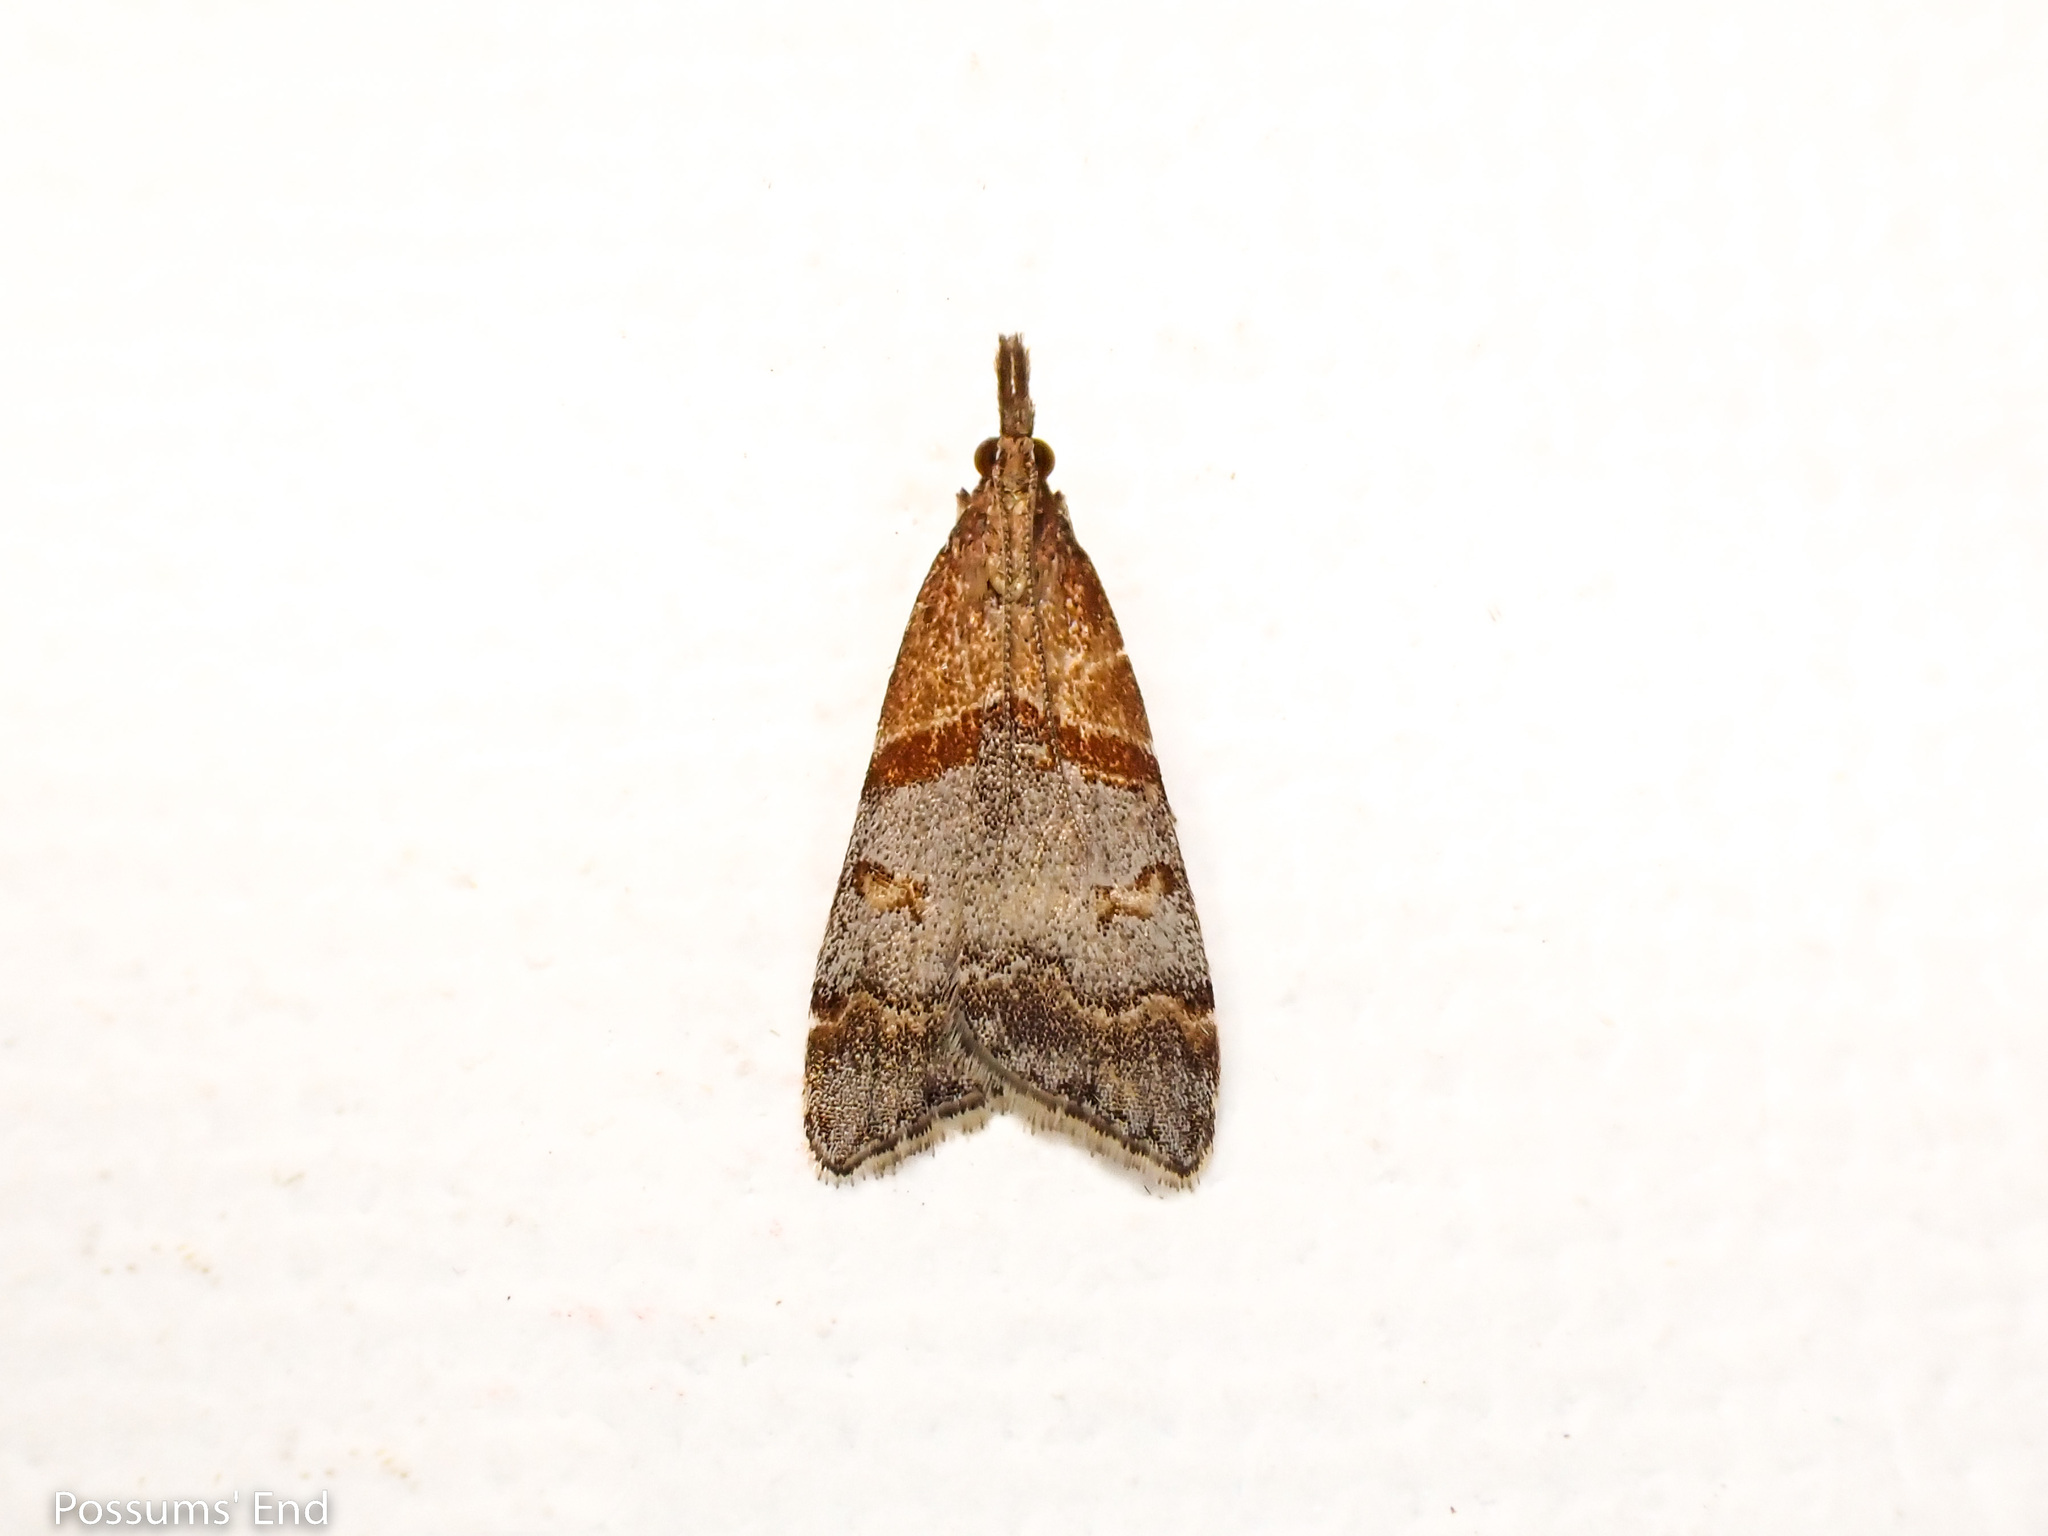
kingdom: Animalia
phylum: Arthropoda
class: Insecta
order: Lepidoptera
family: Crambidae
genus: Antiscopa
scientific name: Antiscopa epicomia
